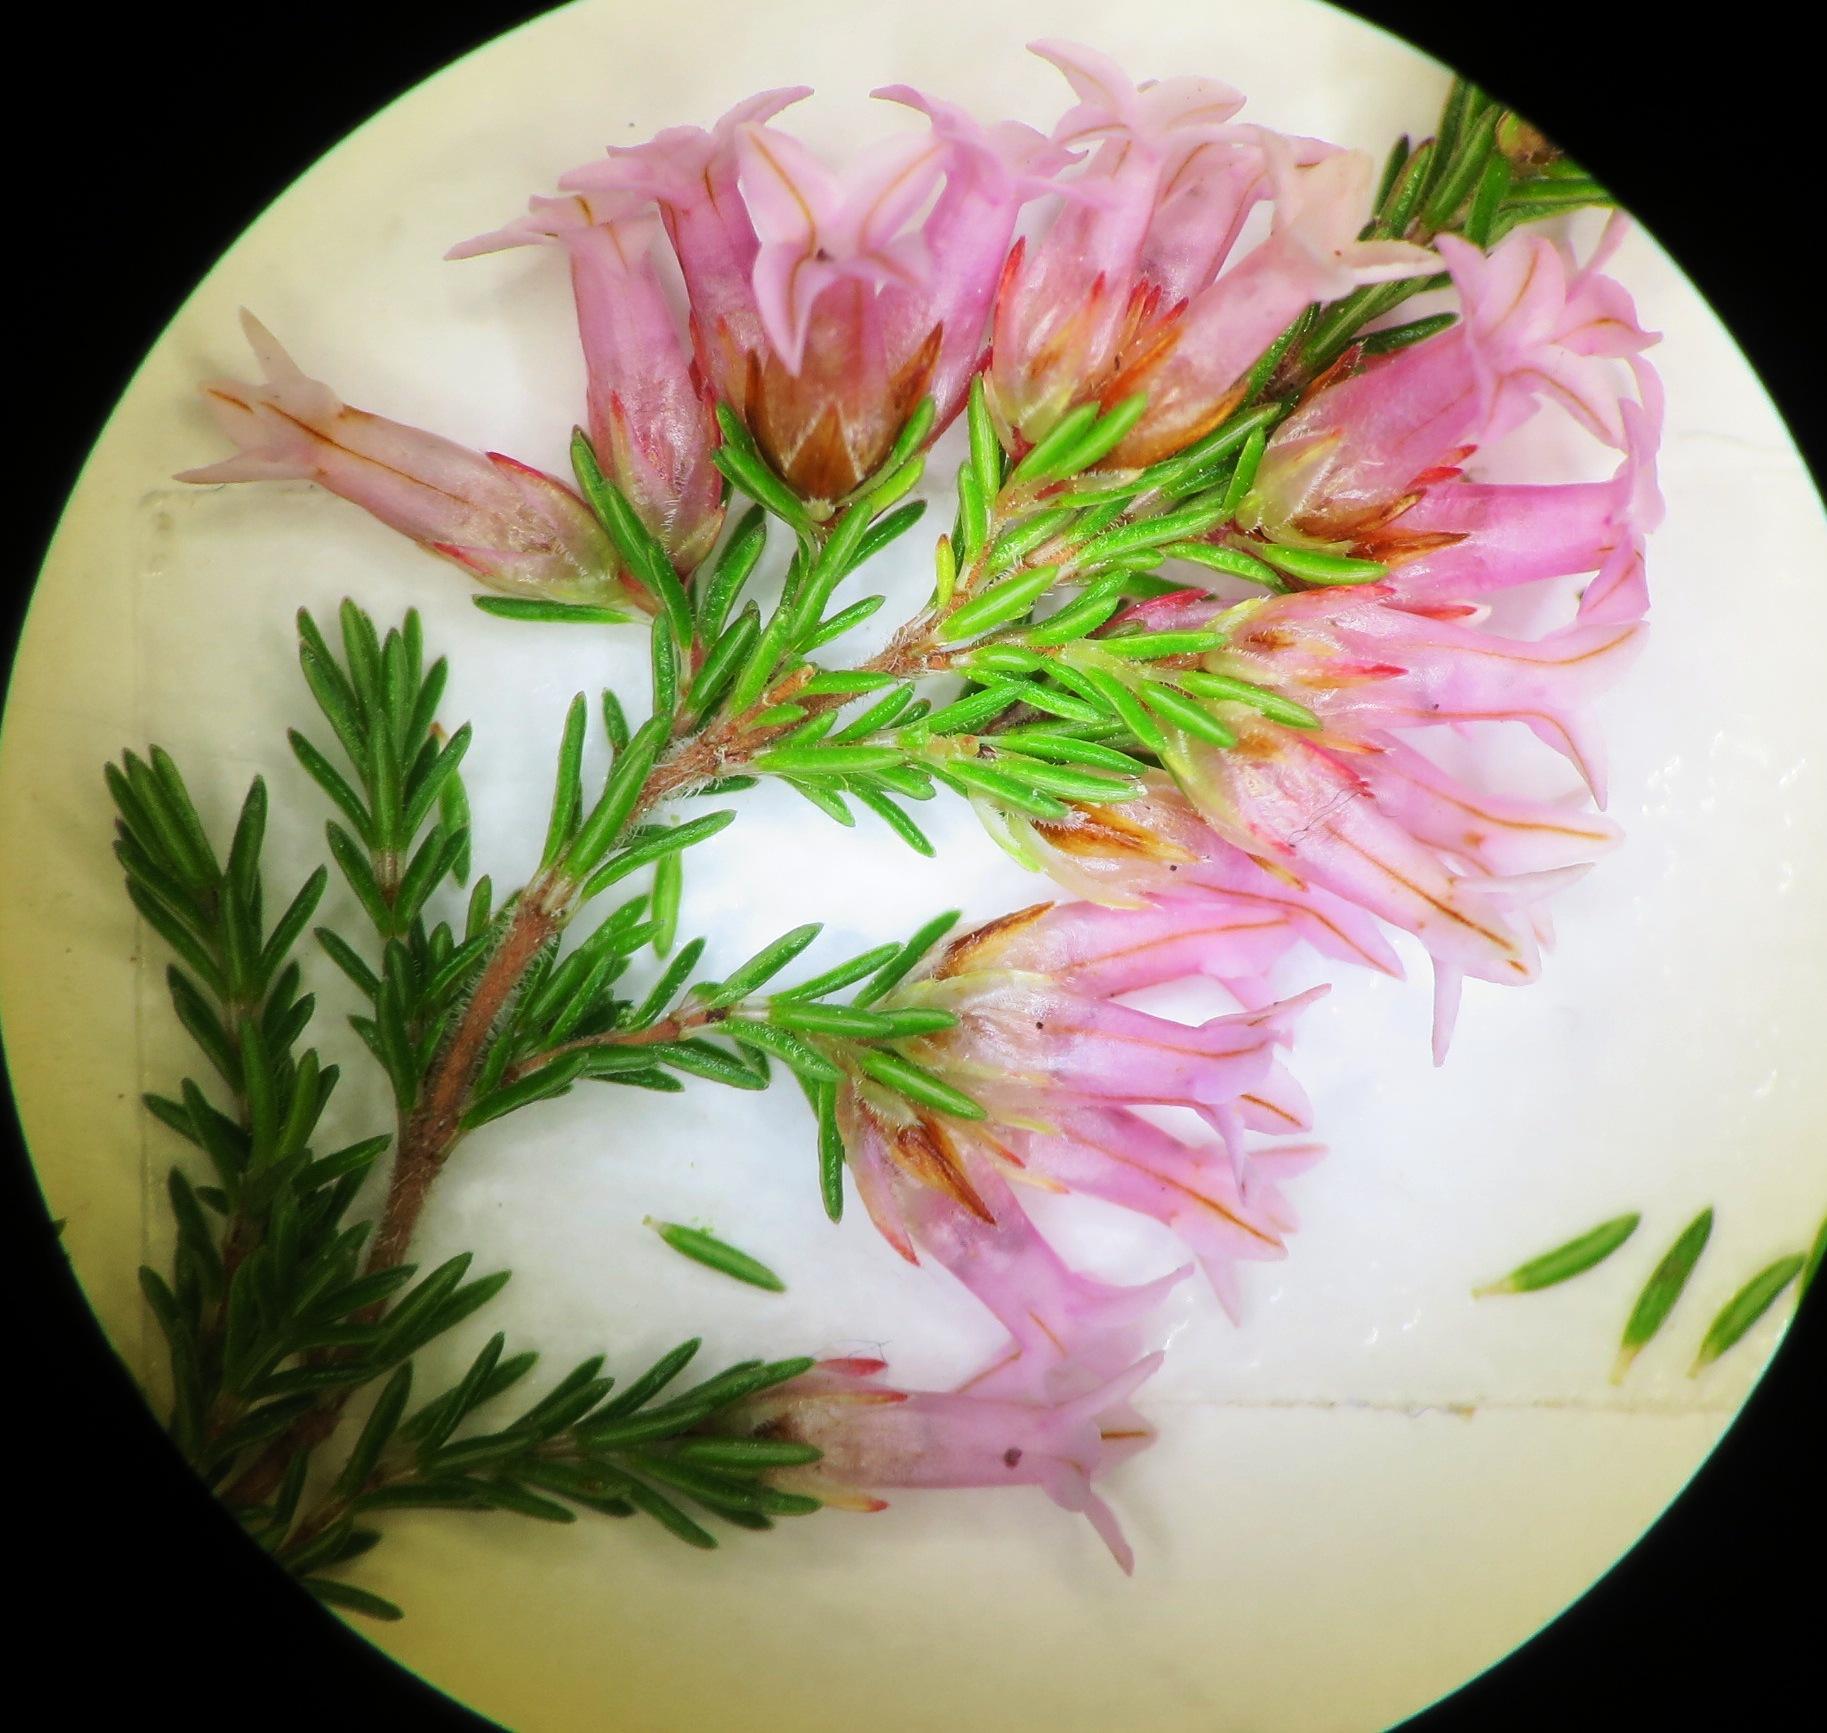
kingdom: Plantae
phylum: Tracheophyta
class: Magnoliopsida
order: Ericales
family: Ericaceae
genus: Erica
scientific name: Erica
